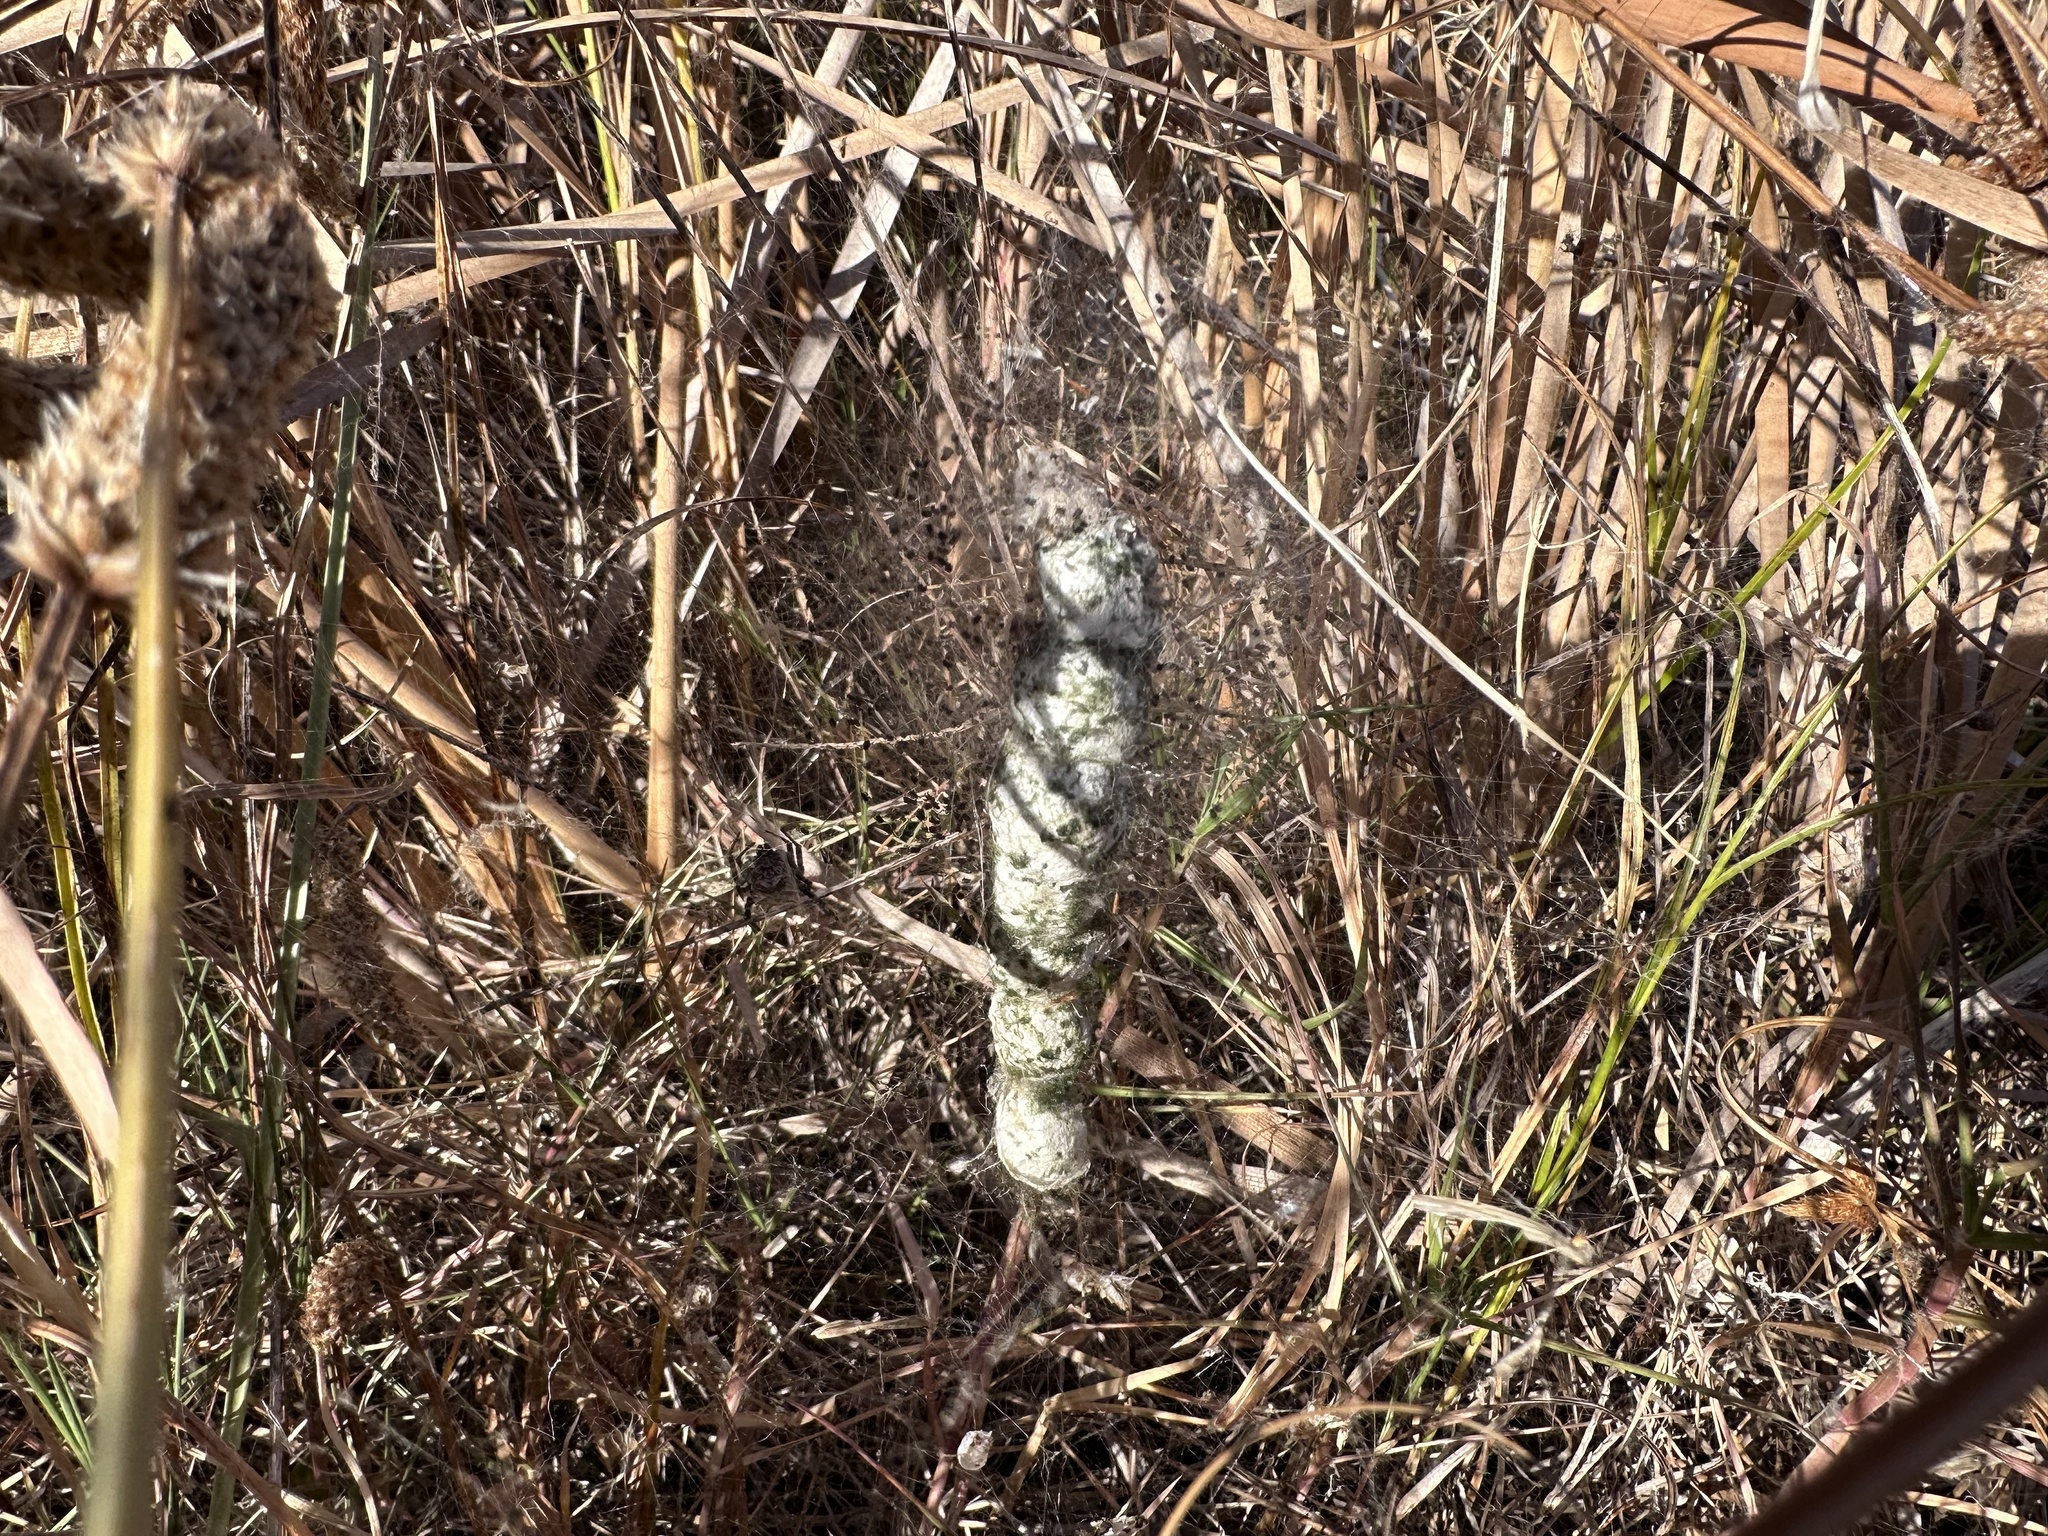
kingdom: Animalia
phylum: Arthropoda
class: Arachnida
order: Araneae
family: Araneidae
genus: Cyrtophora
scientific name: Cyrtophora citricola
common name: Orb weavers
